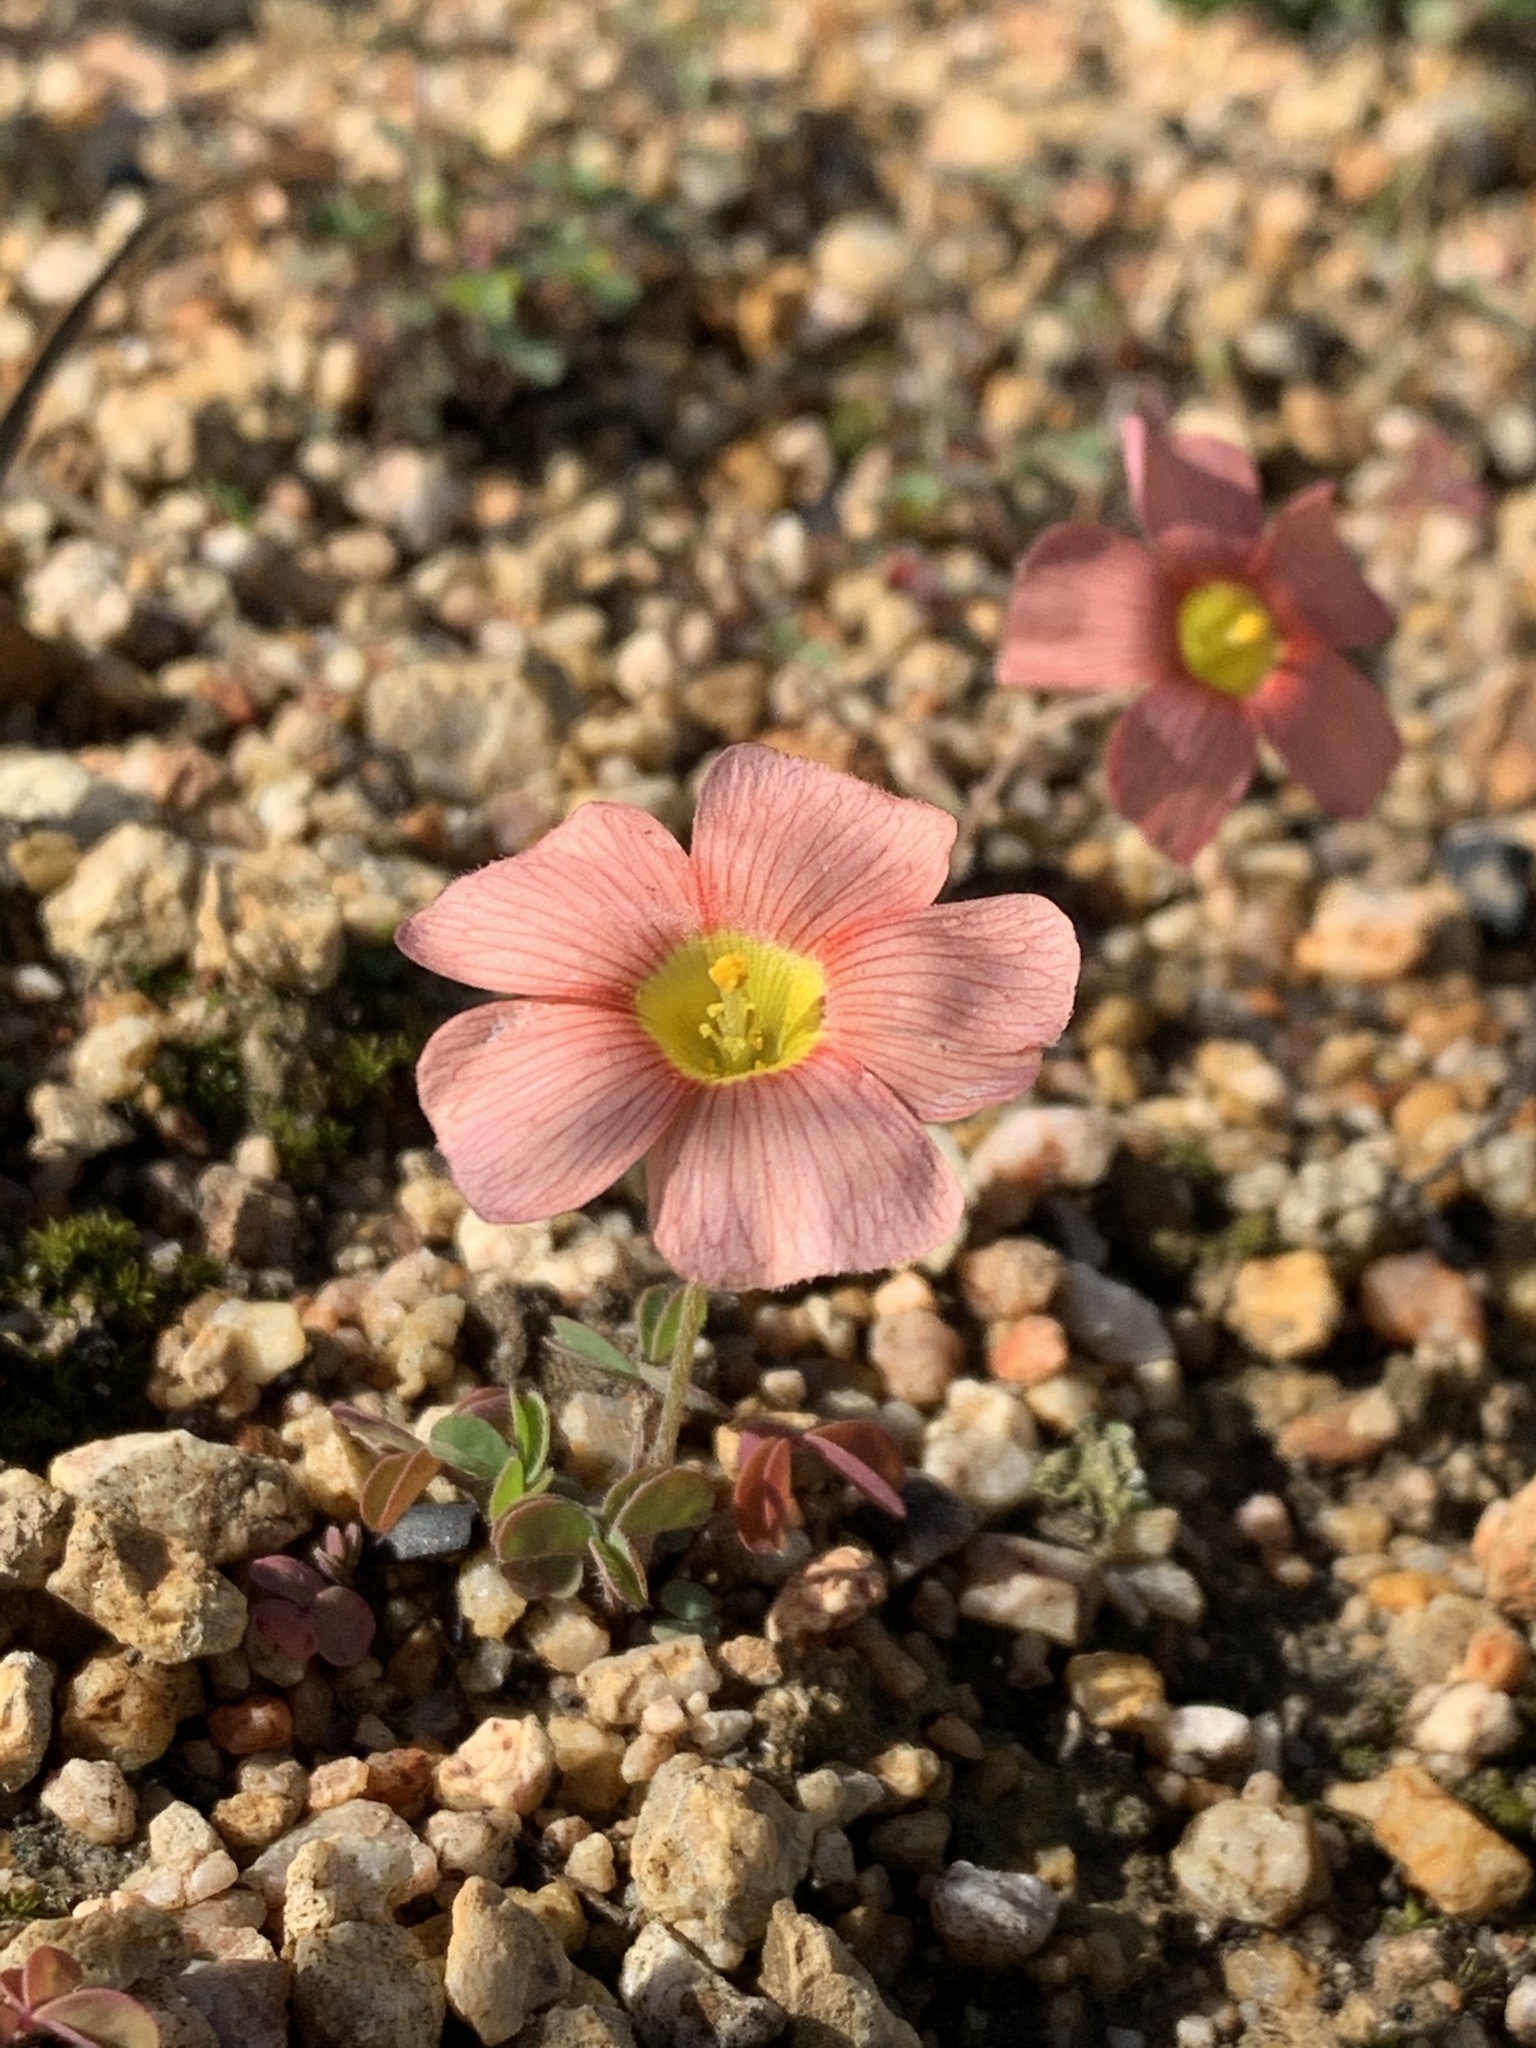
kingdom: Plantae
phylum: Tracheophyta
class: Magnoliopsida
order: Oxalidales
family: Oxalidaceae
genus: Oxalis
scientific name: Oxalis obtusa
